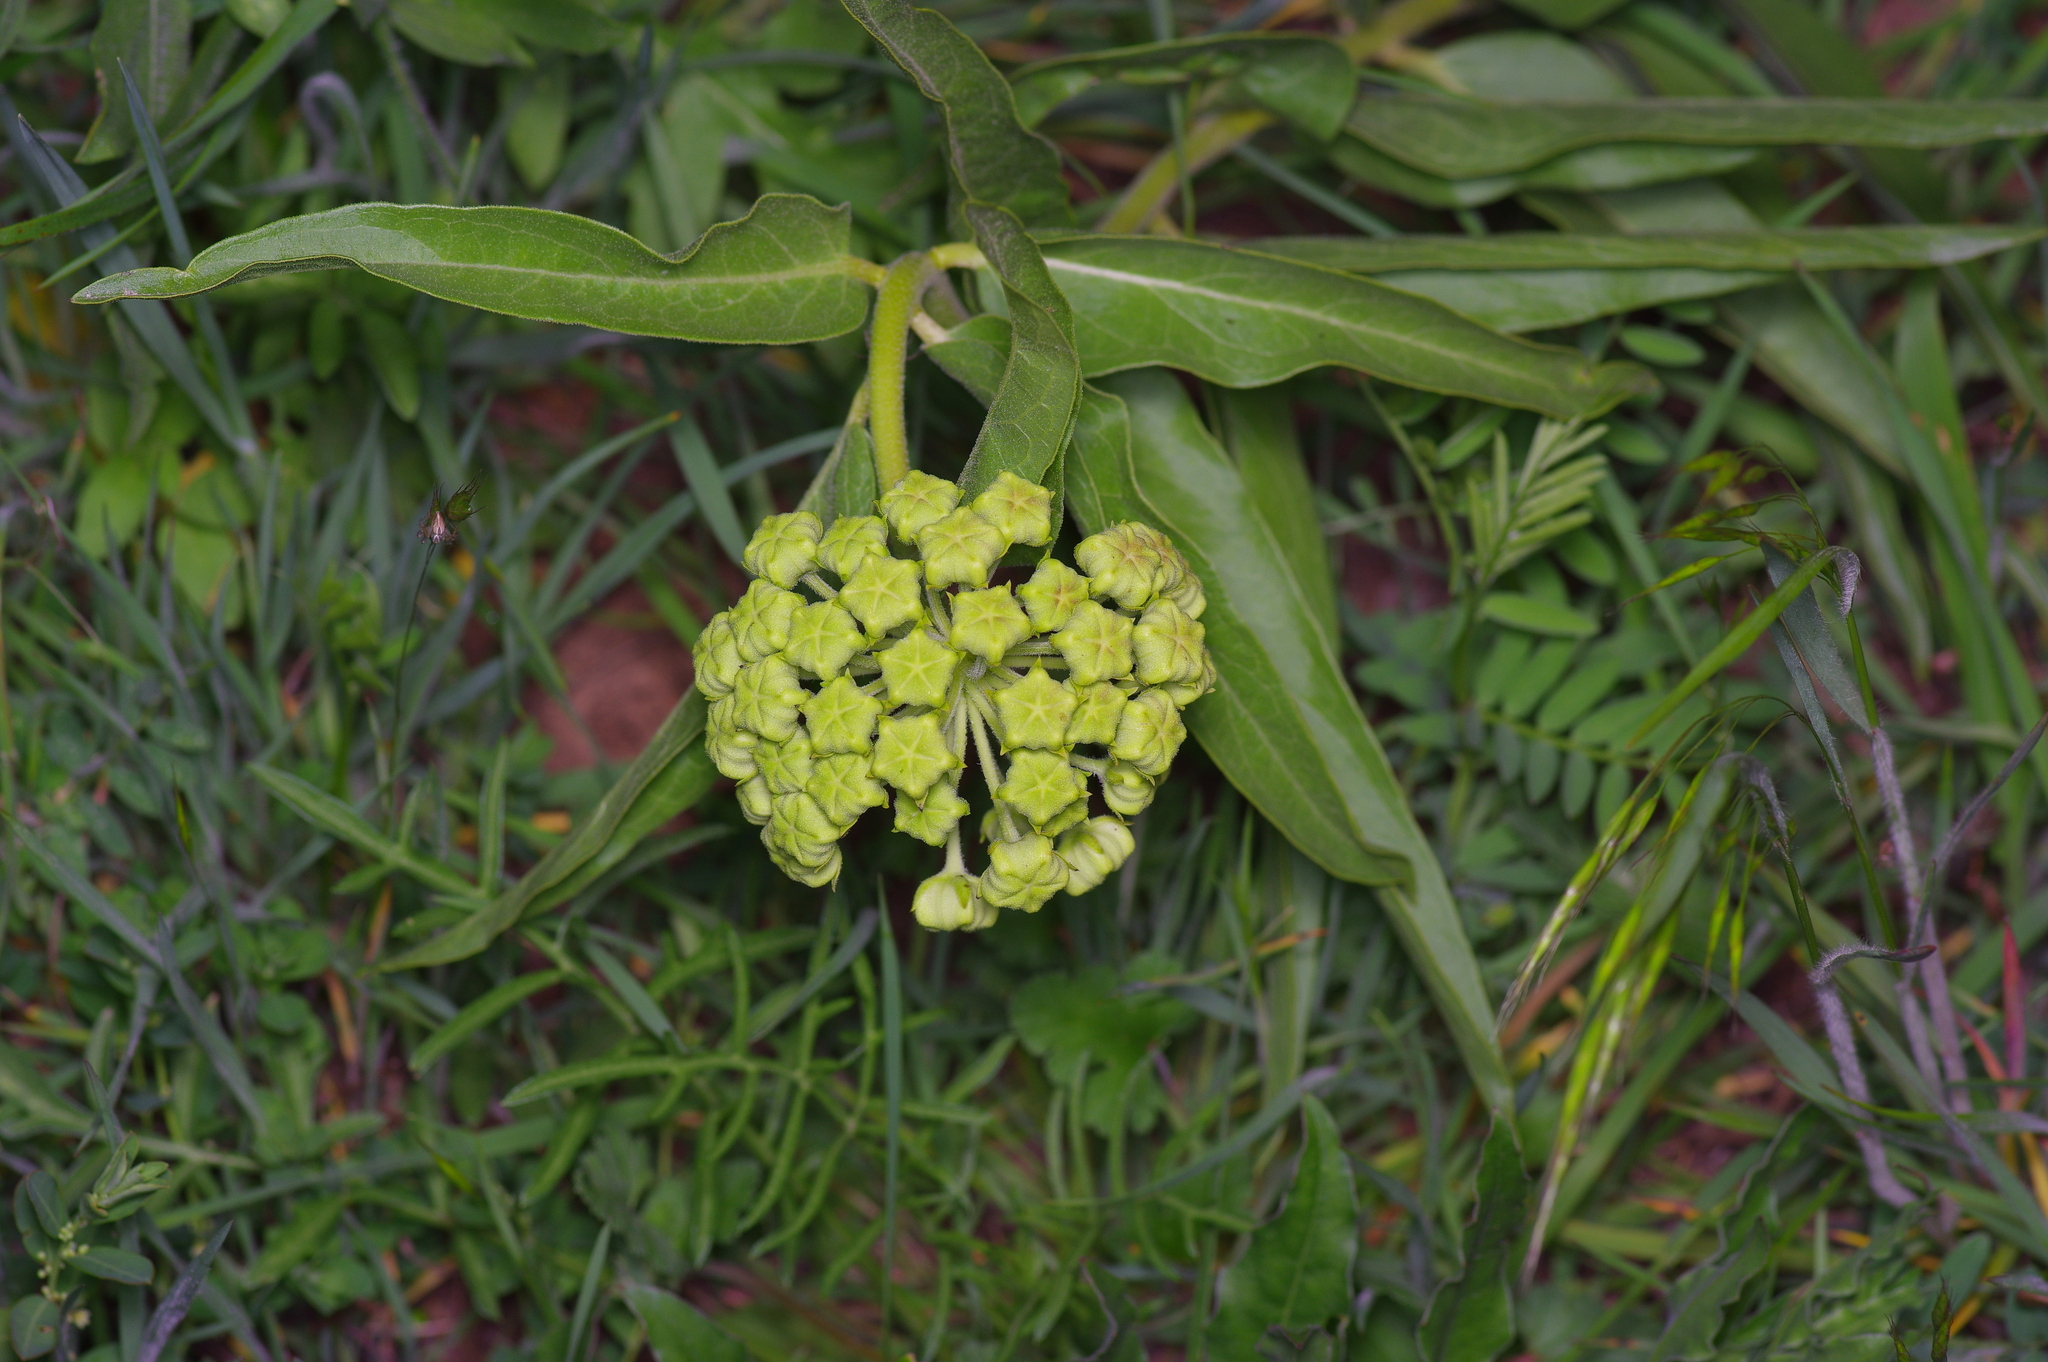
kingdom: Plantae
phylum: Tracheophyta
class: Magnoliopsida
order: Gentianales
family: Apocynaceae
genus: Asclepias
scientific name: Asclepias asperula
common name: Antelope horns
